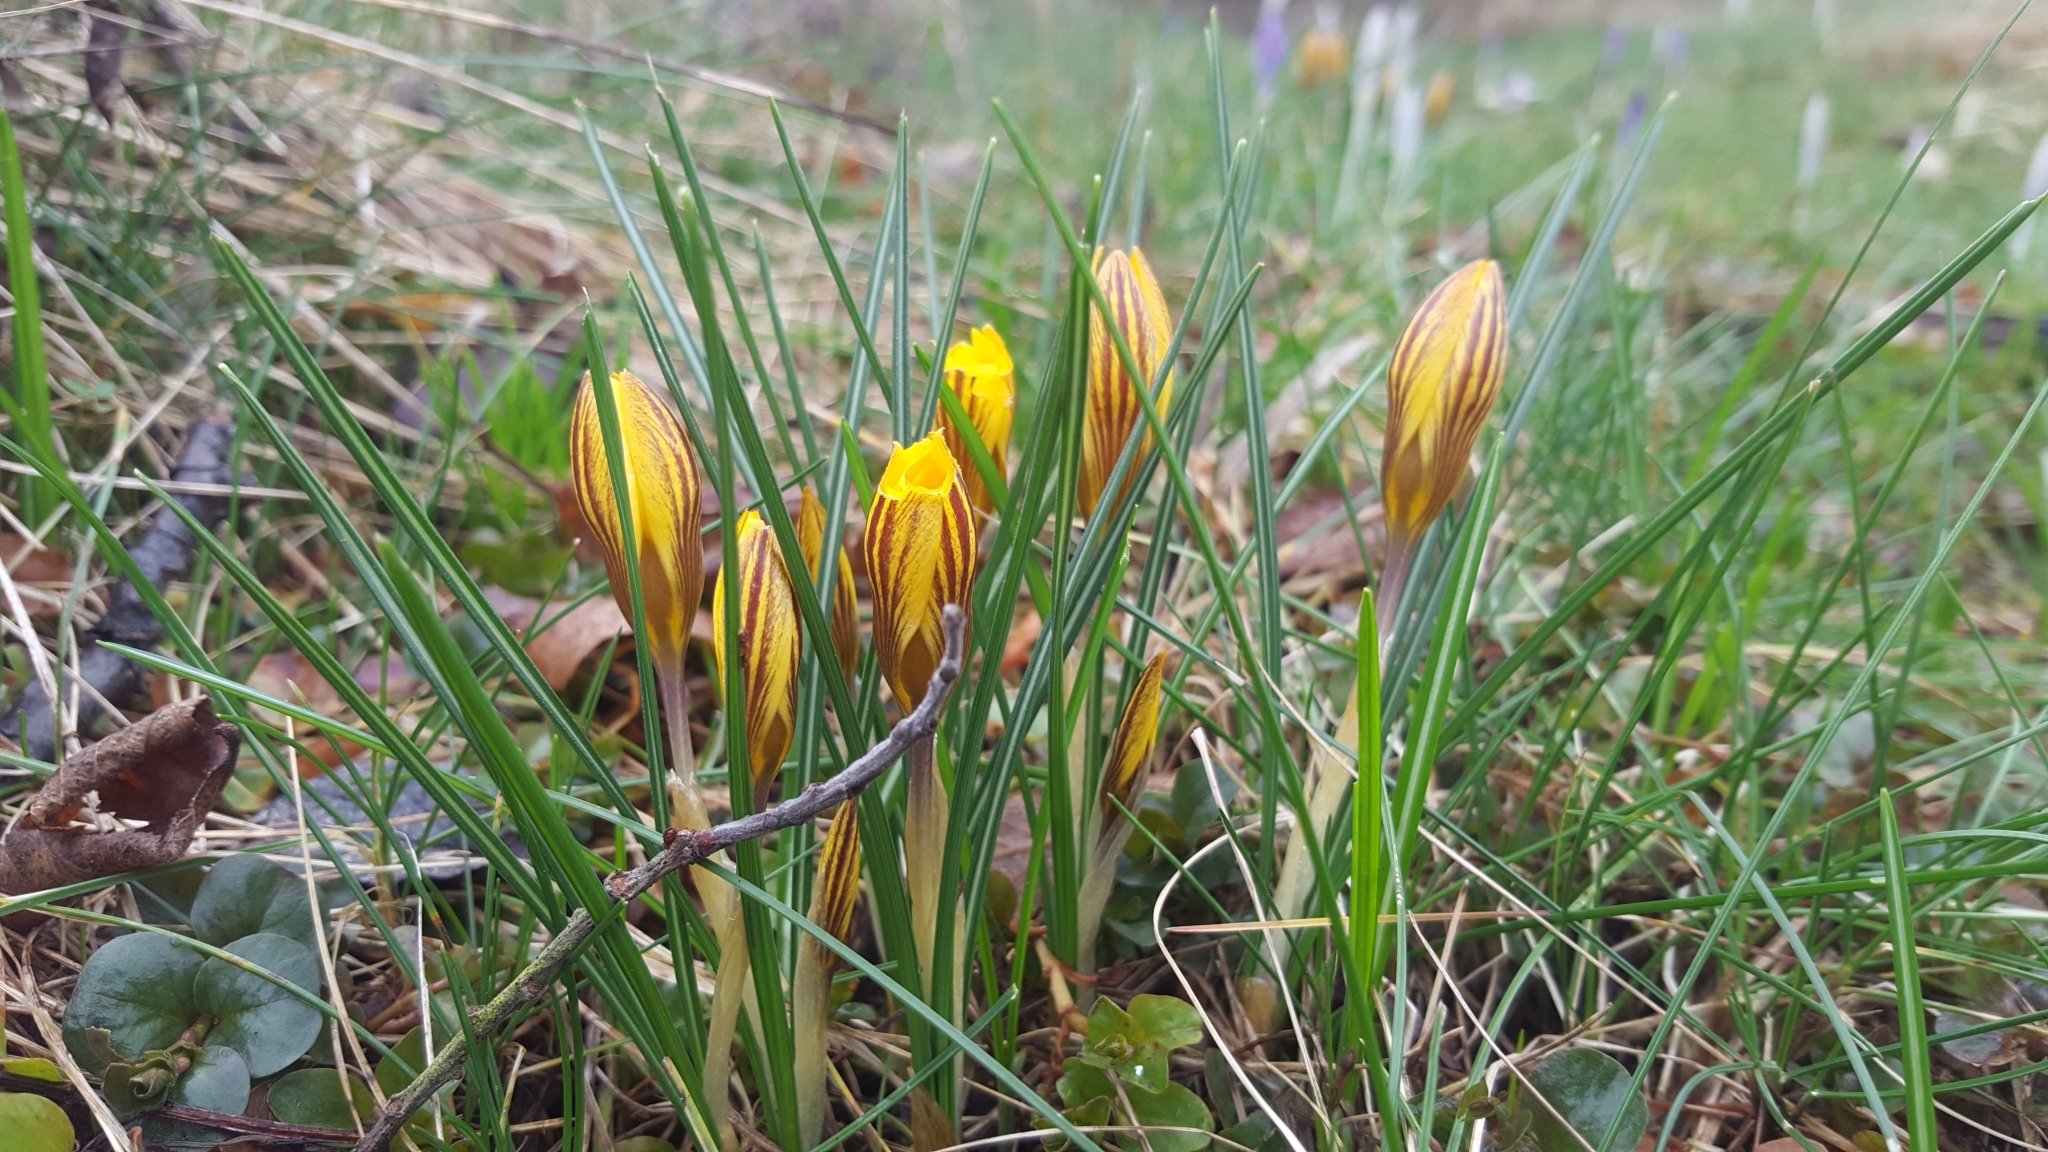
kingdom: Plantae
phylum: Tracheophyta
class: Liliopsida
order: Asparagales
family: Iridaceae
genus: Crocus
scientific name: Crocus chrysanthus
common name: Golden crocus
